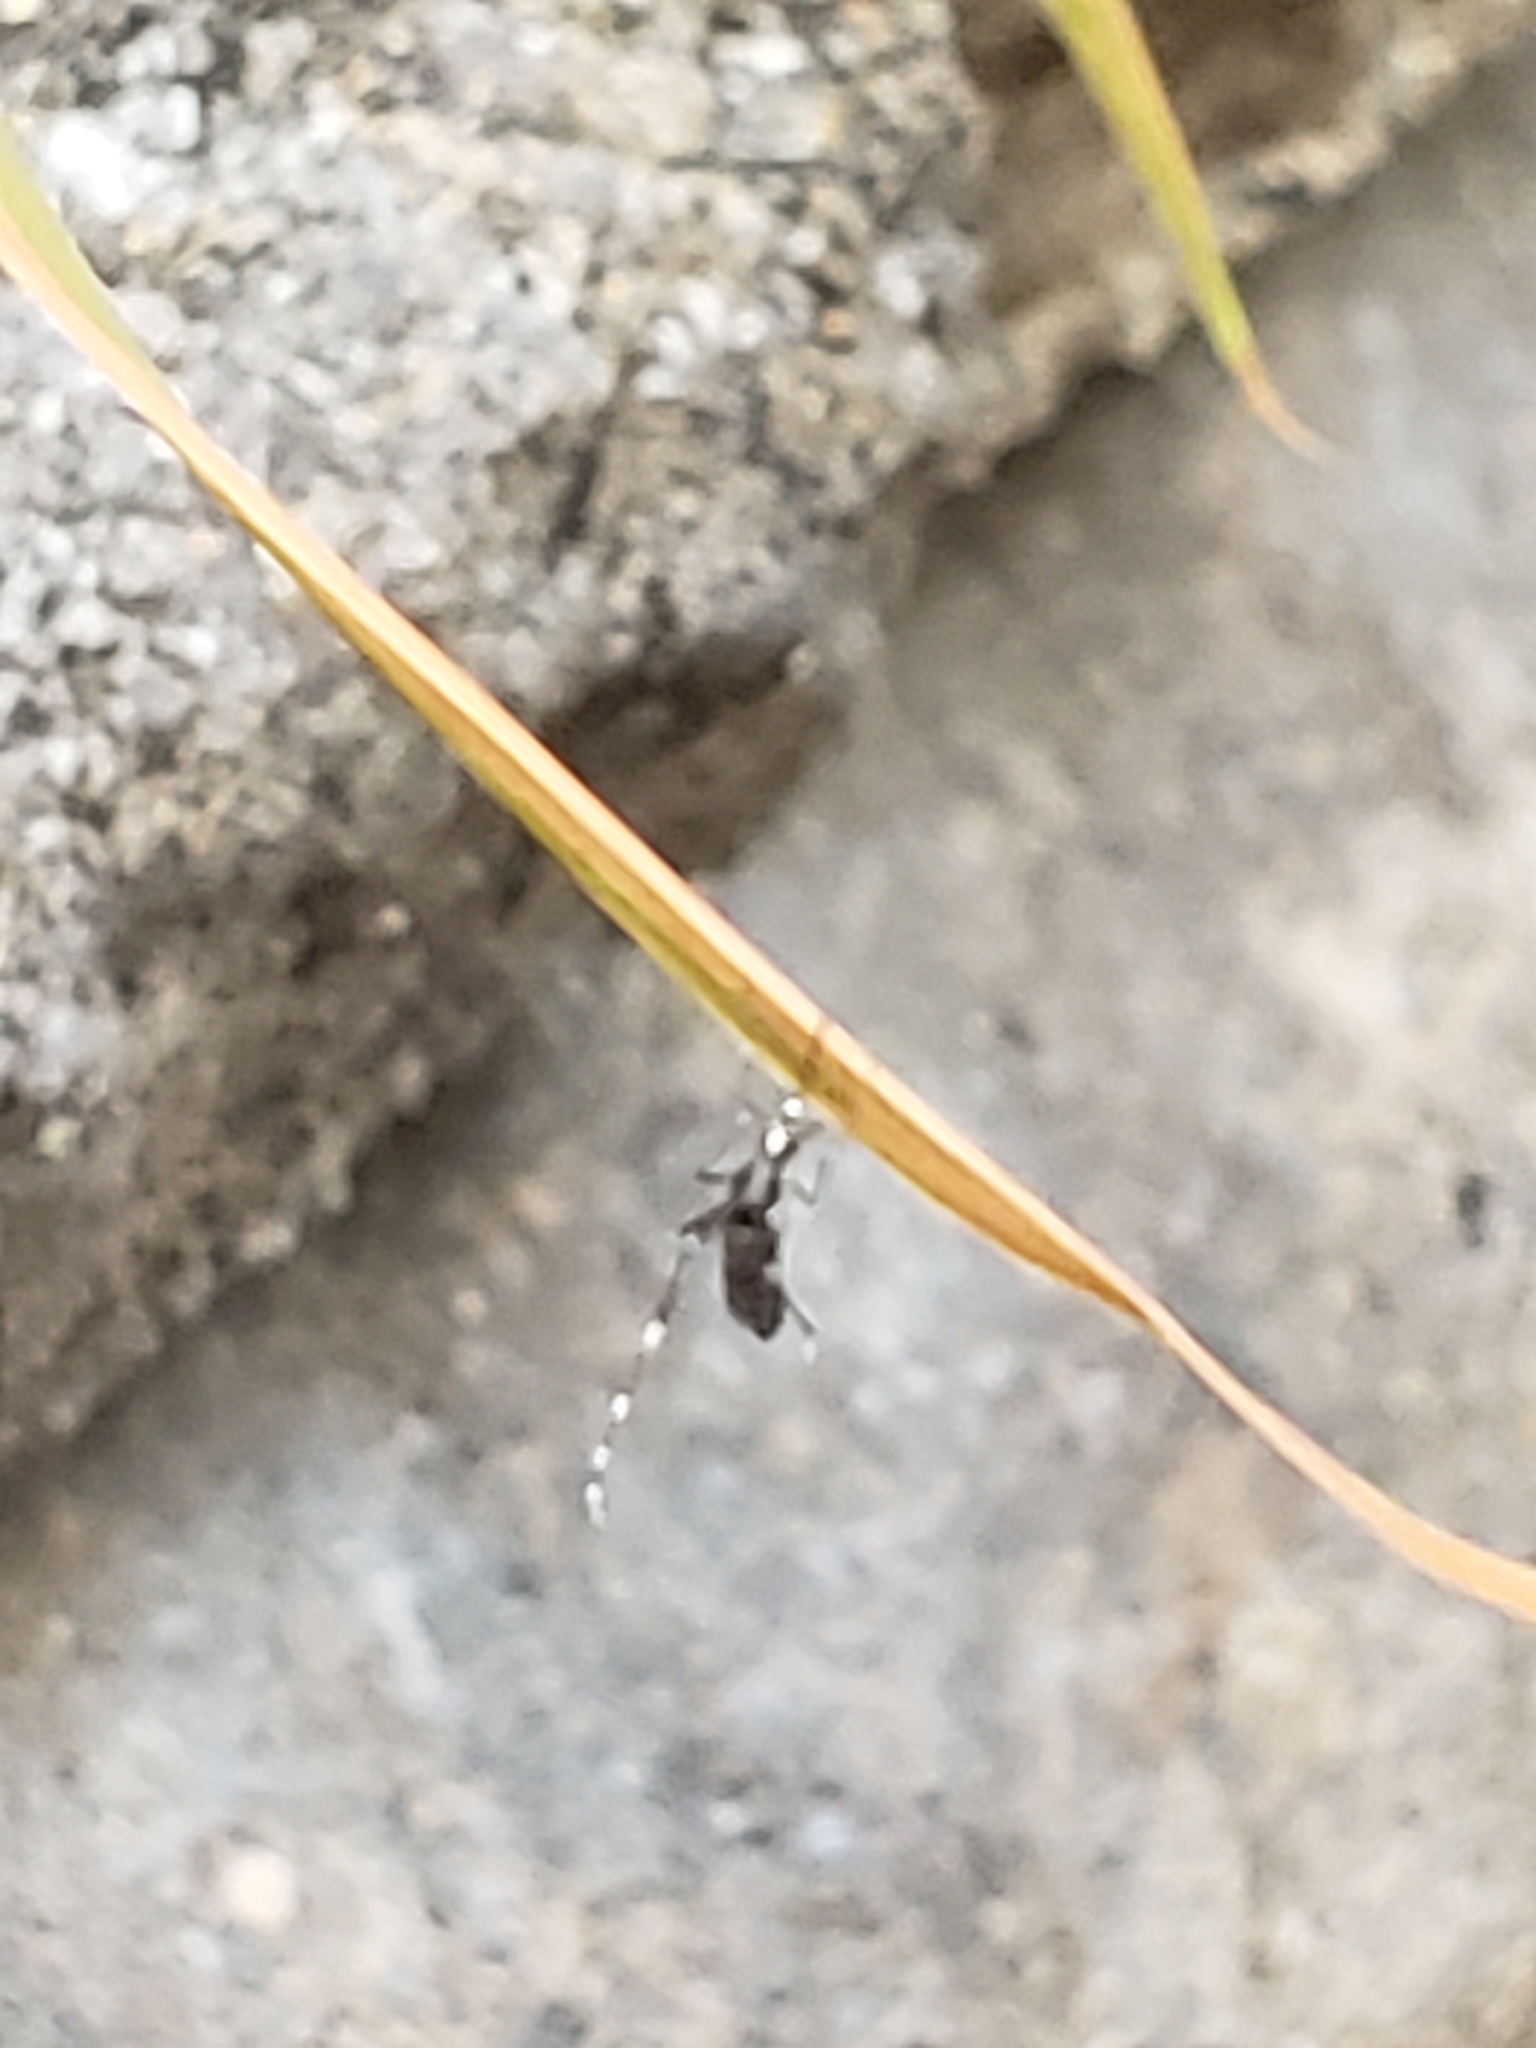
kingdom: Animalia
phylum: Arthropoda
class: Insecta
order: Diptera
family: Culicidae
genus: Aedes
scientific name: Aedes albopictus
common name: Tiger mosquito
